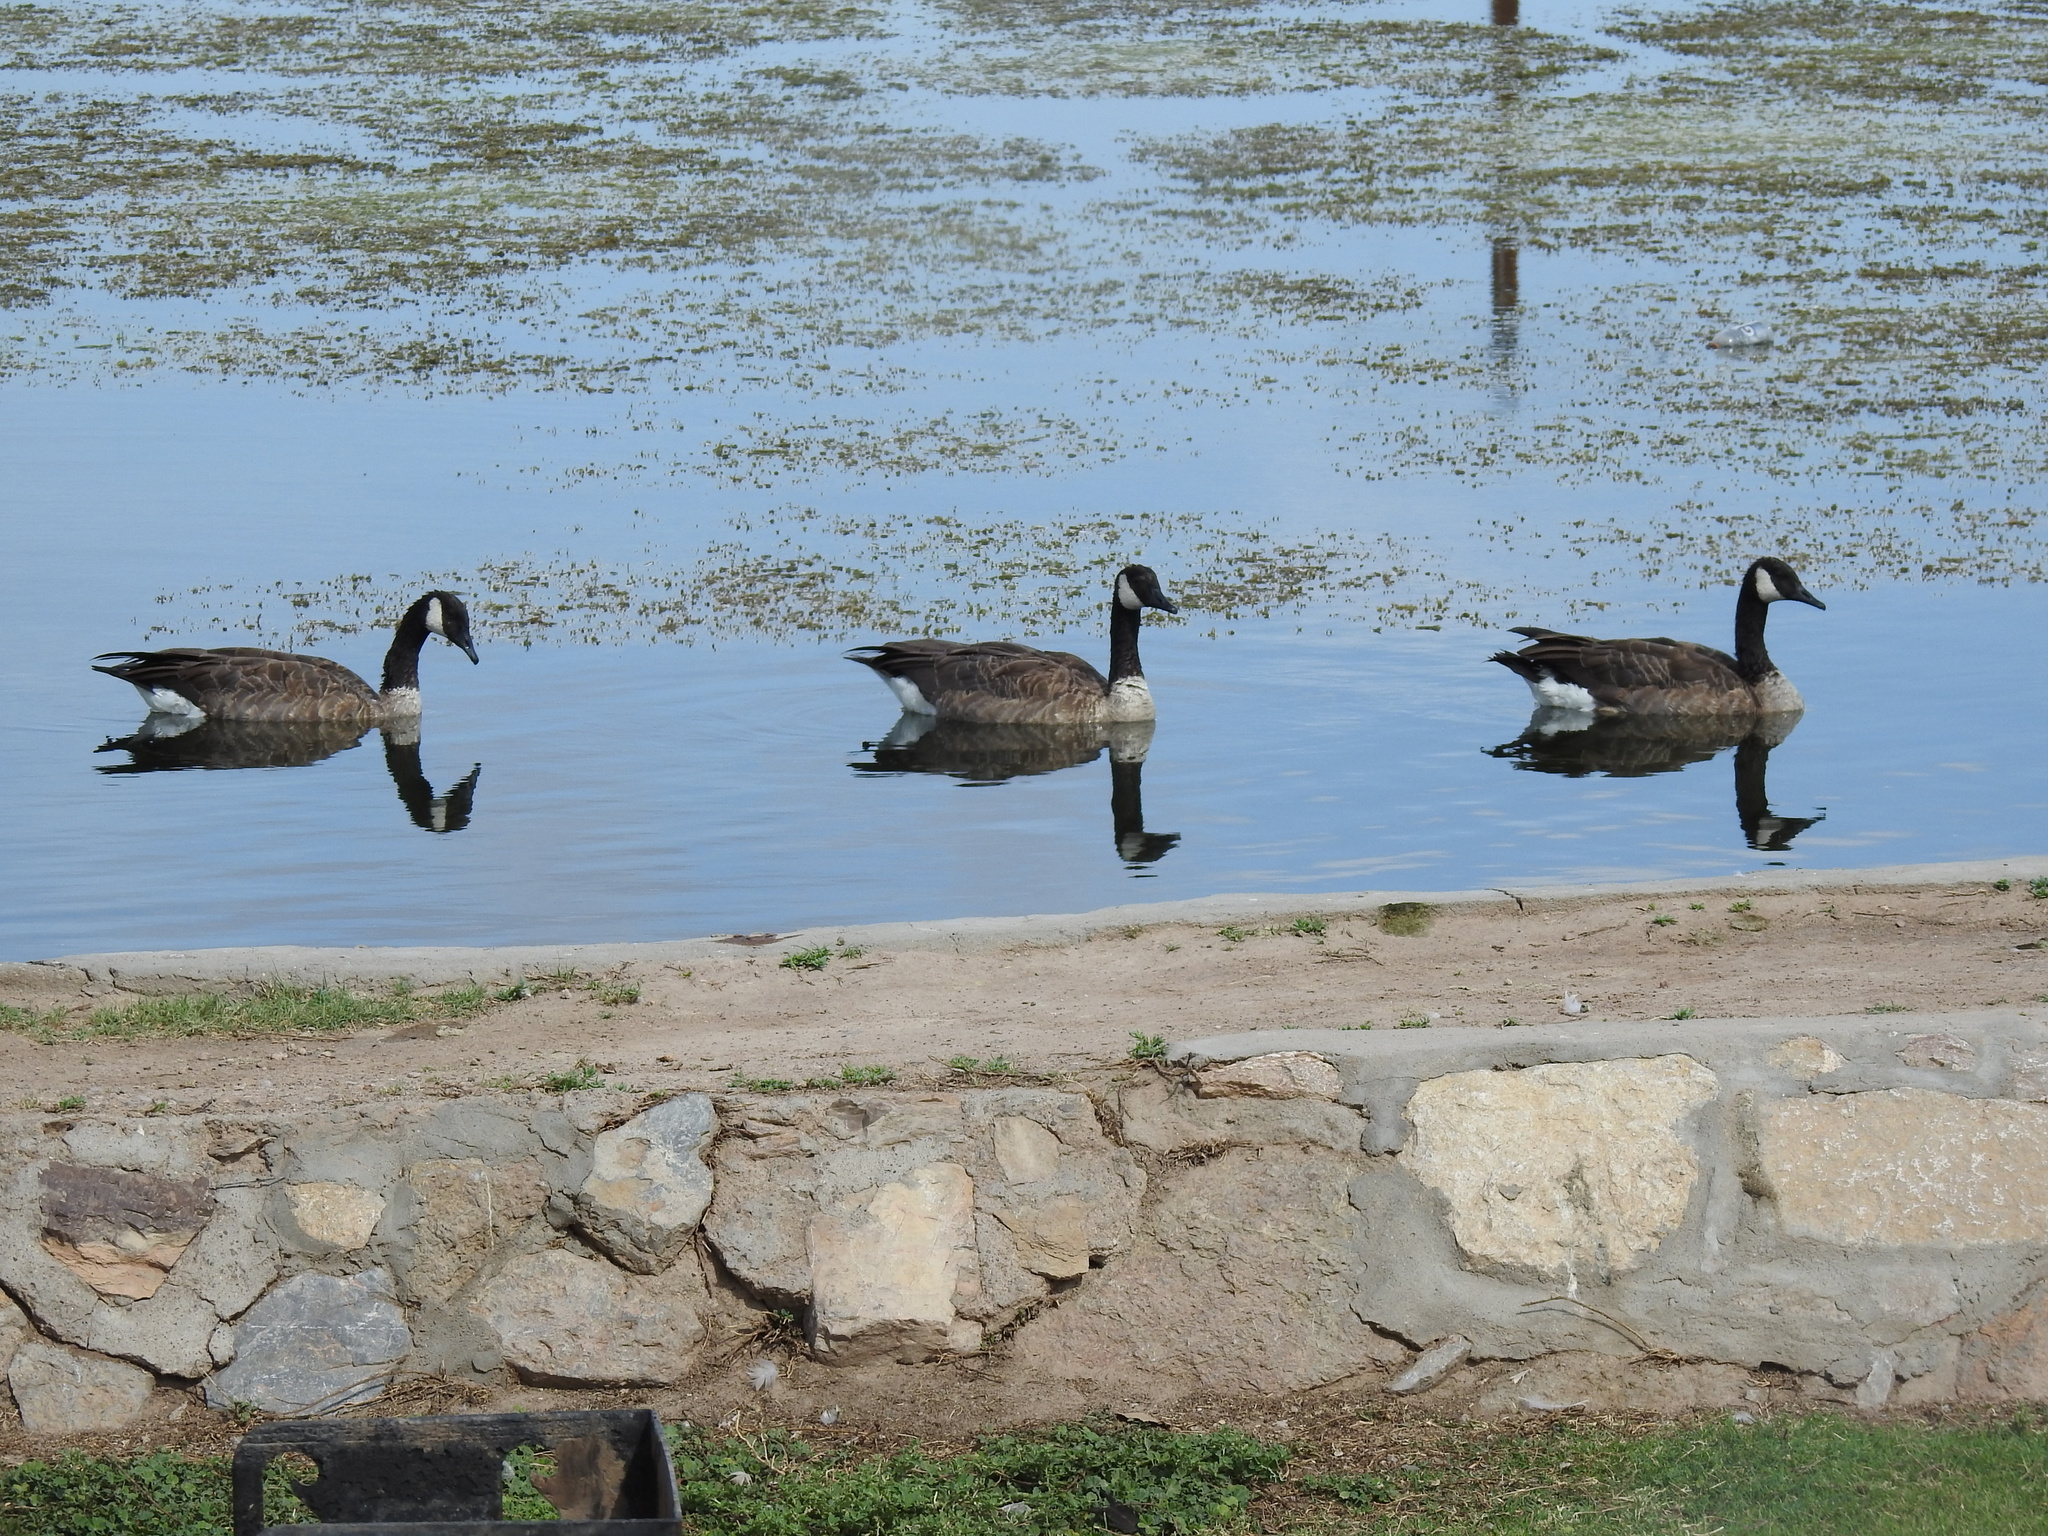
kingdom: Animalia
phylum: Chordata
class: Aves
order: Anseriformes
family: Anatidae
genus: Branta
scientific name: Branta canadensis
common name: Canada goose
